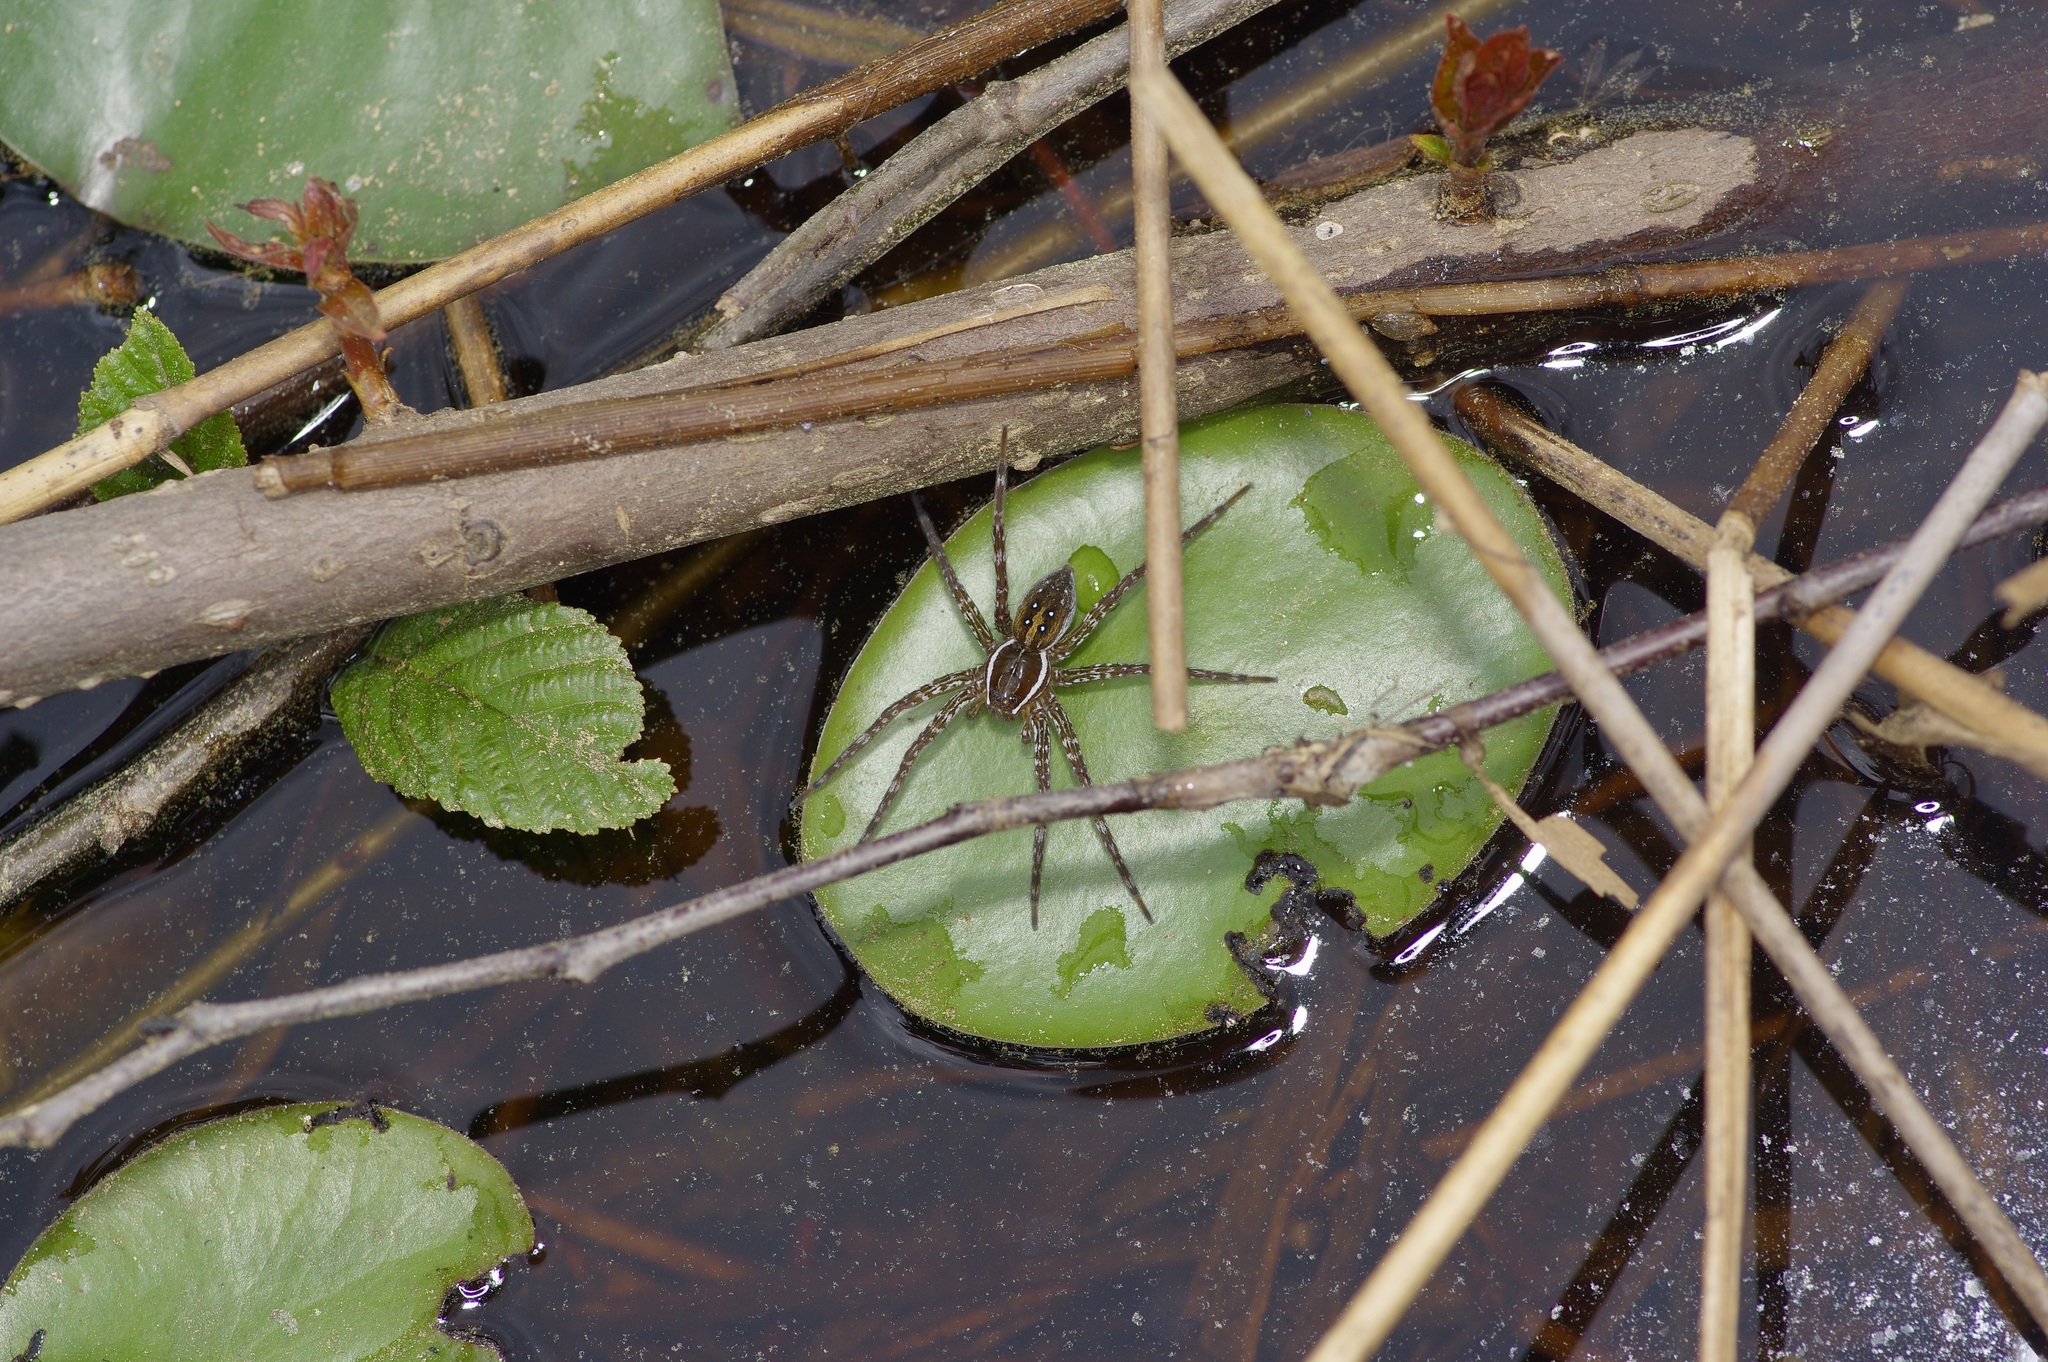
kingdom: Animalia
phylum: Arthropoda
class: Arachnida
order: Araneae
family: Pisauridae
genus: Dolomedes
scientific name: Dolomedes triton
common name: Six-spotted fishing spider
